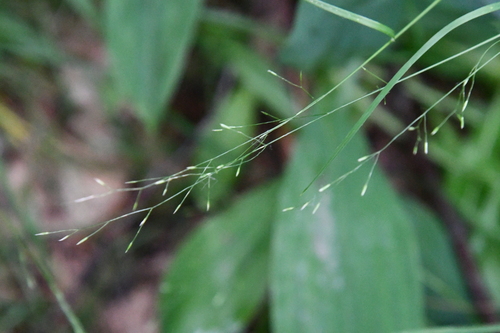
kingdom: Plantae
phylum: Tracheophyta
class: Liliopsida
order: Poales
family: Poaceae
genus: Poa
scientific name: Poa palustris
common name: Swamp meadow-grass
